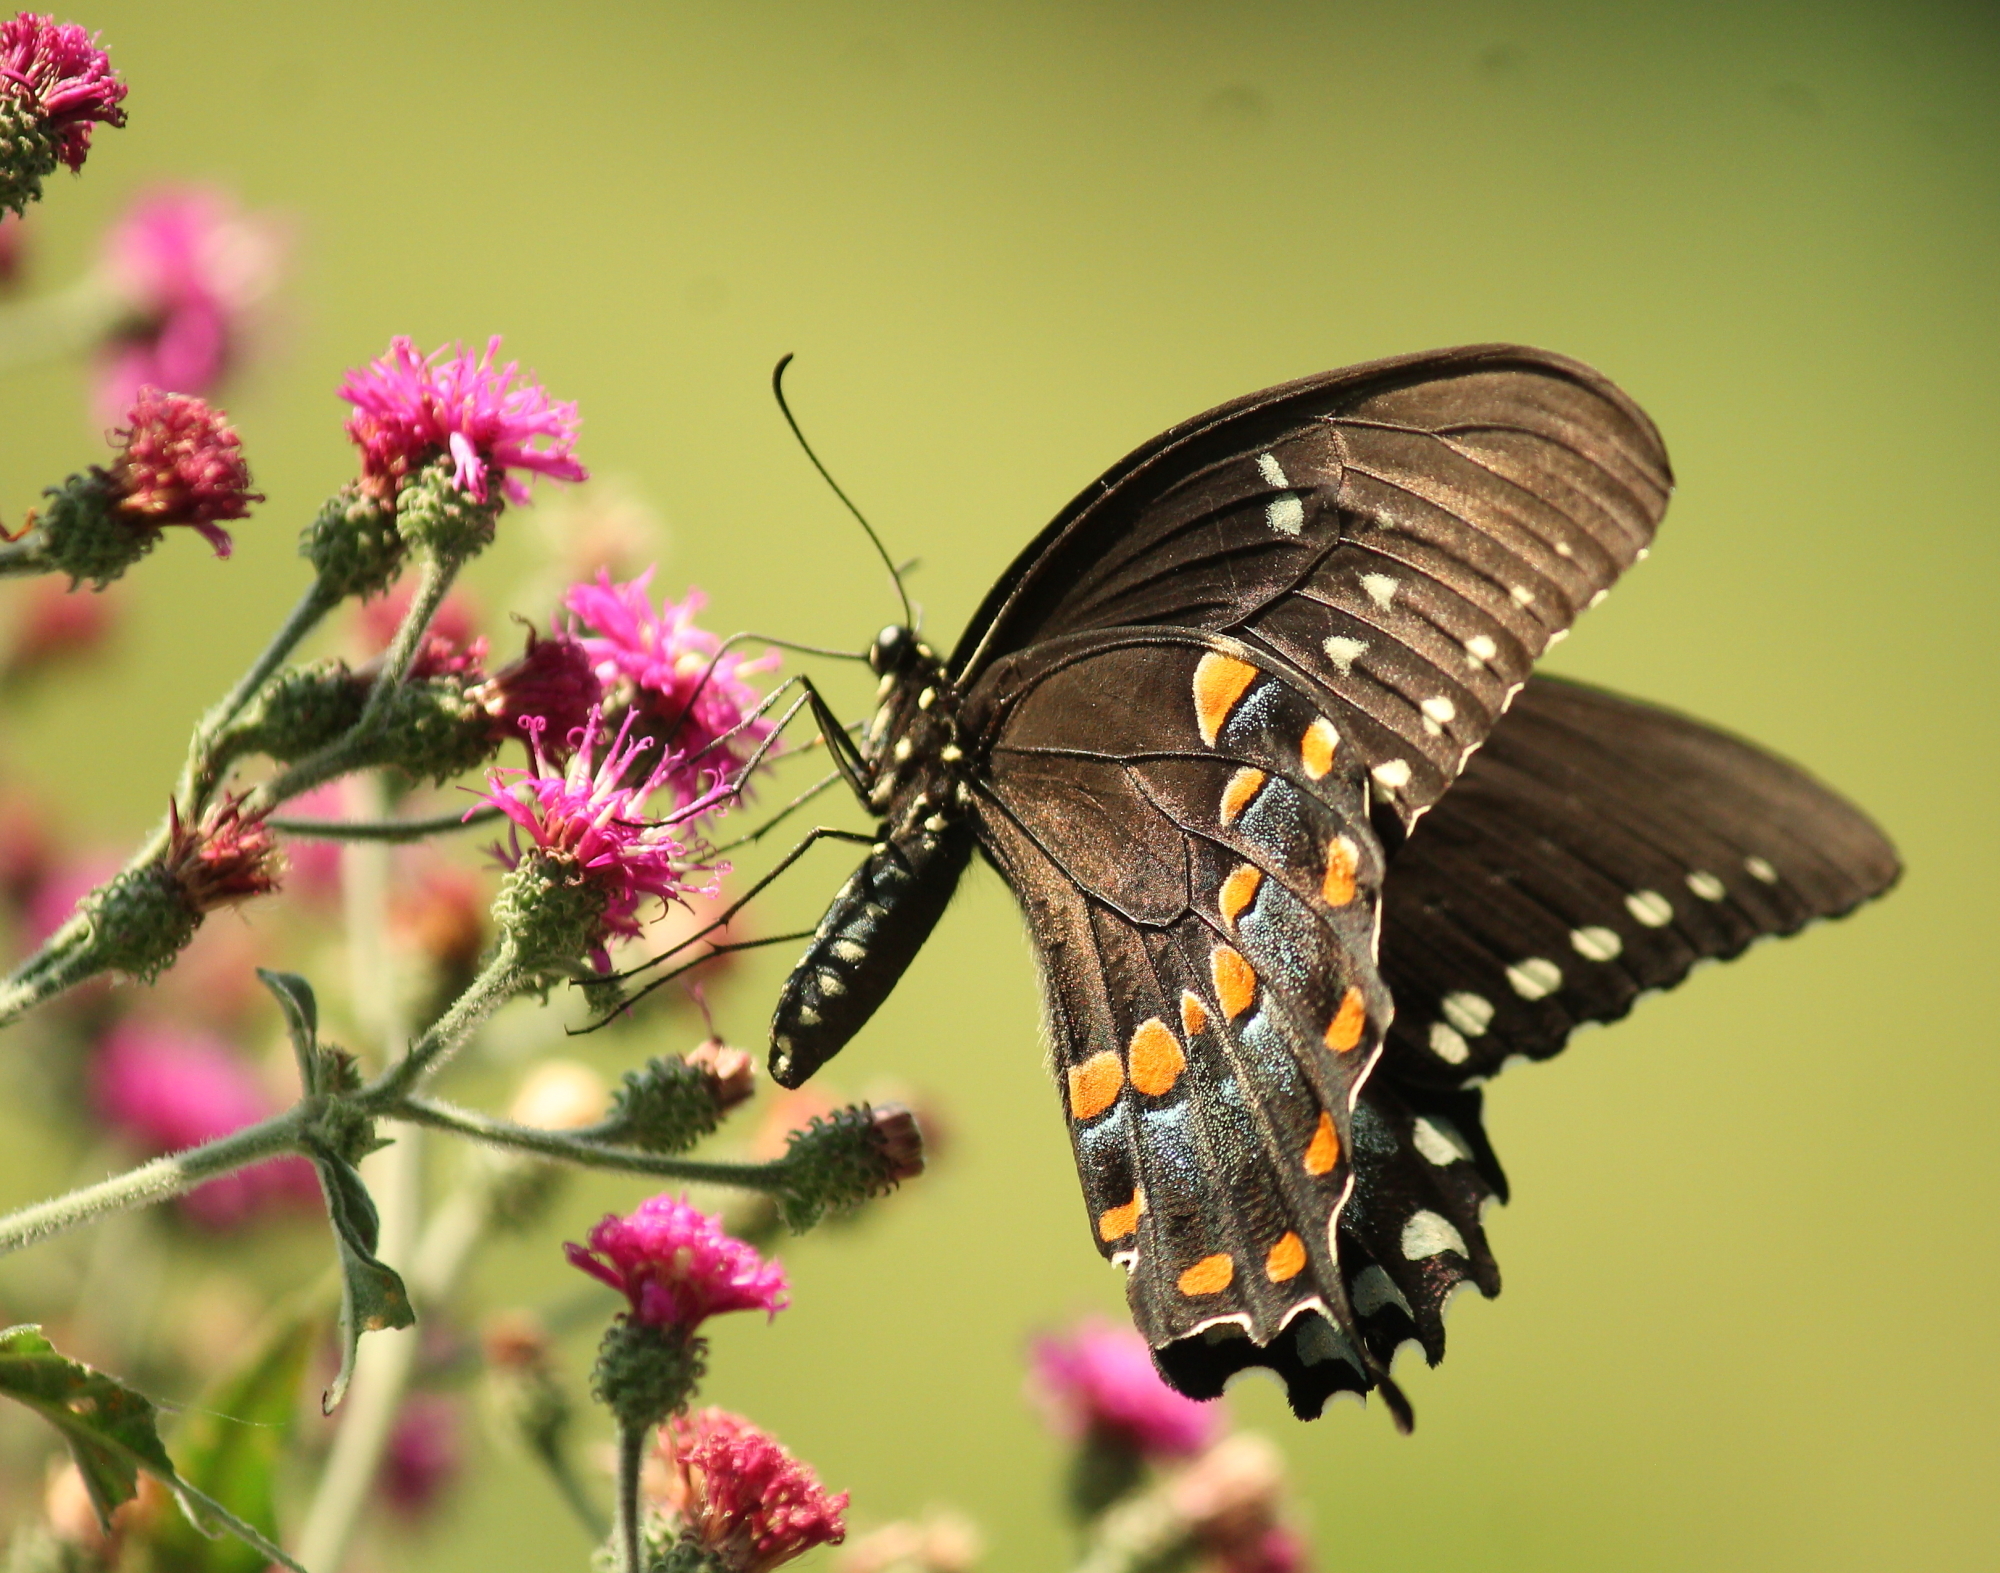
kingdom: Animalia
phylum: Arthropoda
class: Insecta
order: Lepidoptera
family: Papilionidae
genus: Papilio
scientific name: Papilio troilus
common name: Spicebush swallowtail
